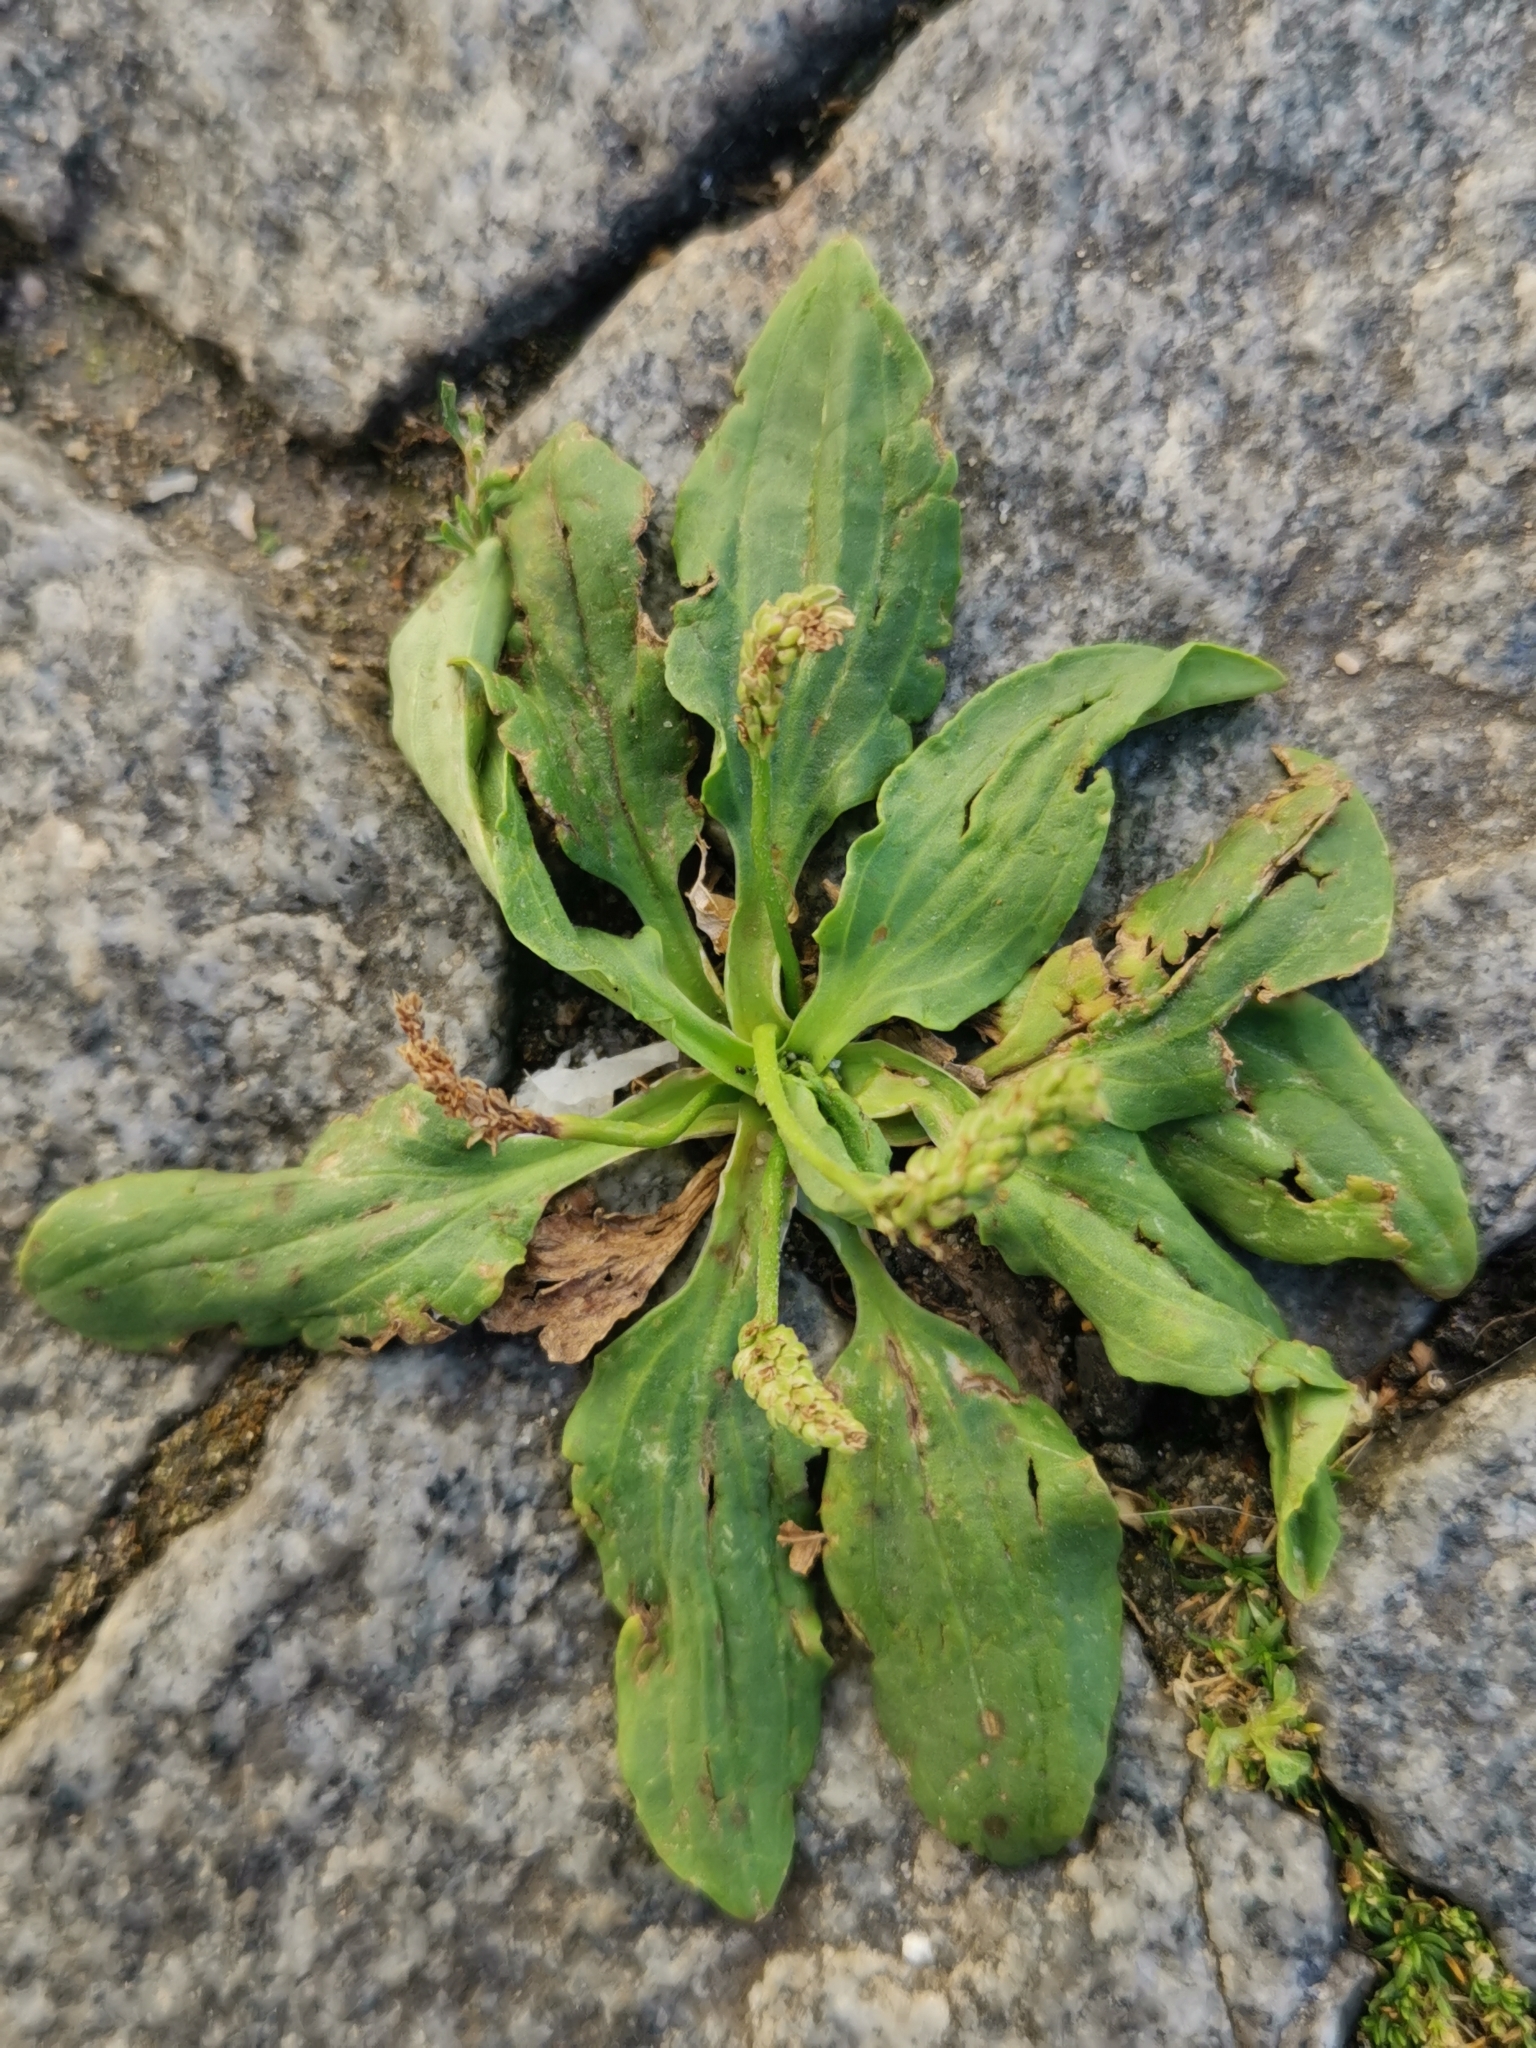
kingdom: Plantae
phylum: Tracheophyta
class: Magnoliopsida
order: Lamiales
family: Plantaginaceae
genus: Plantago
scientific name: Plantago major
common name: Common plantain
